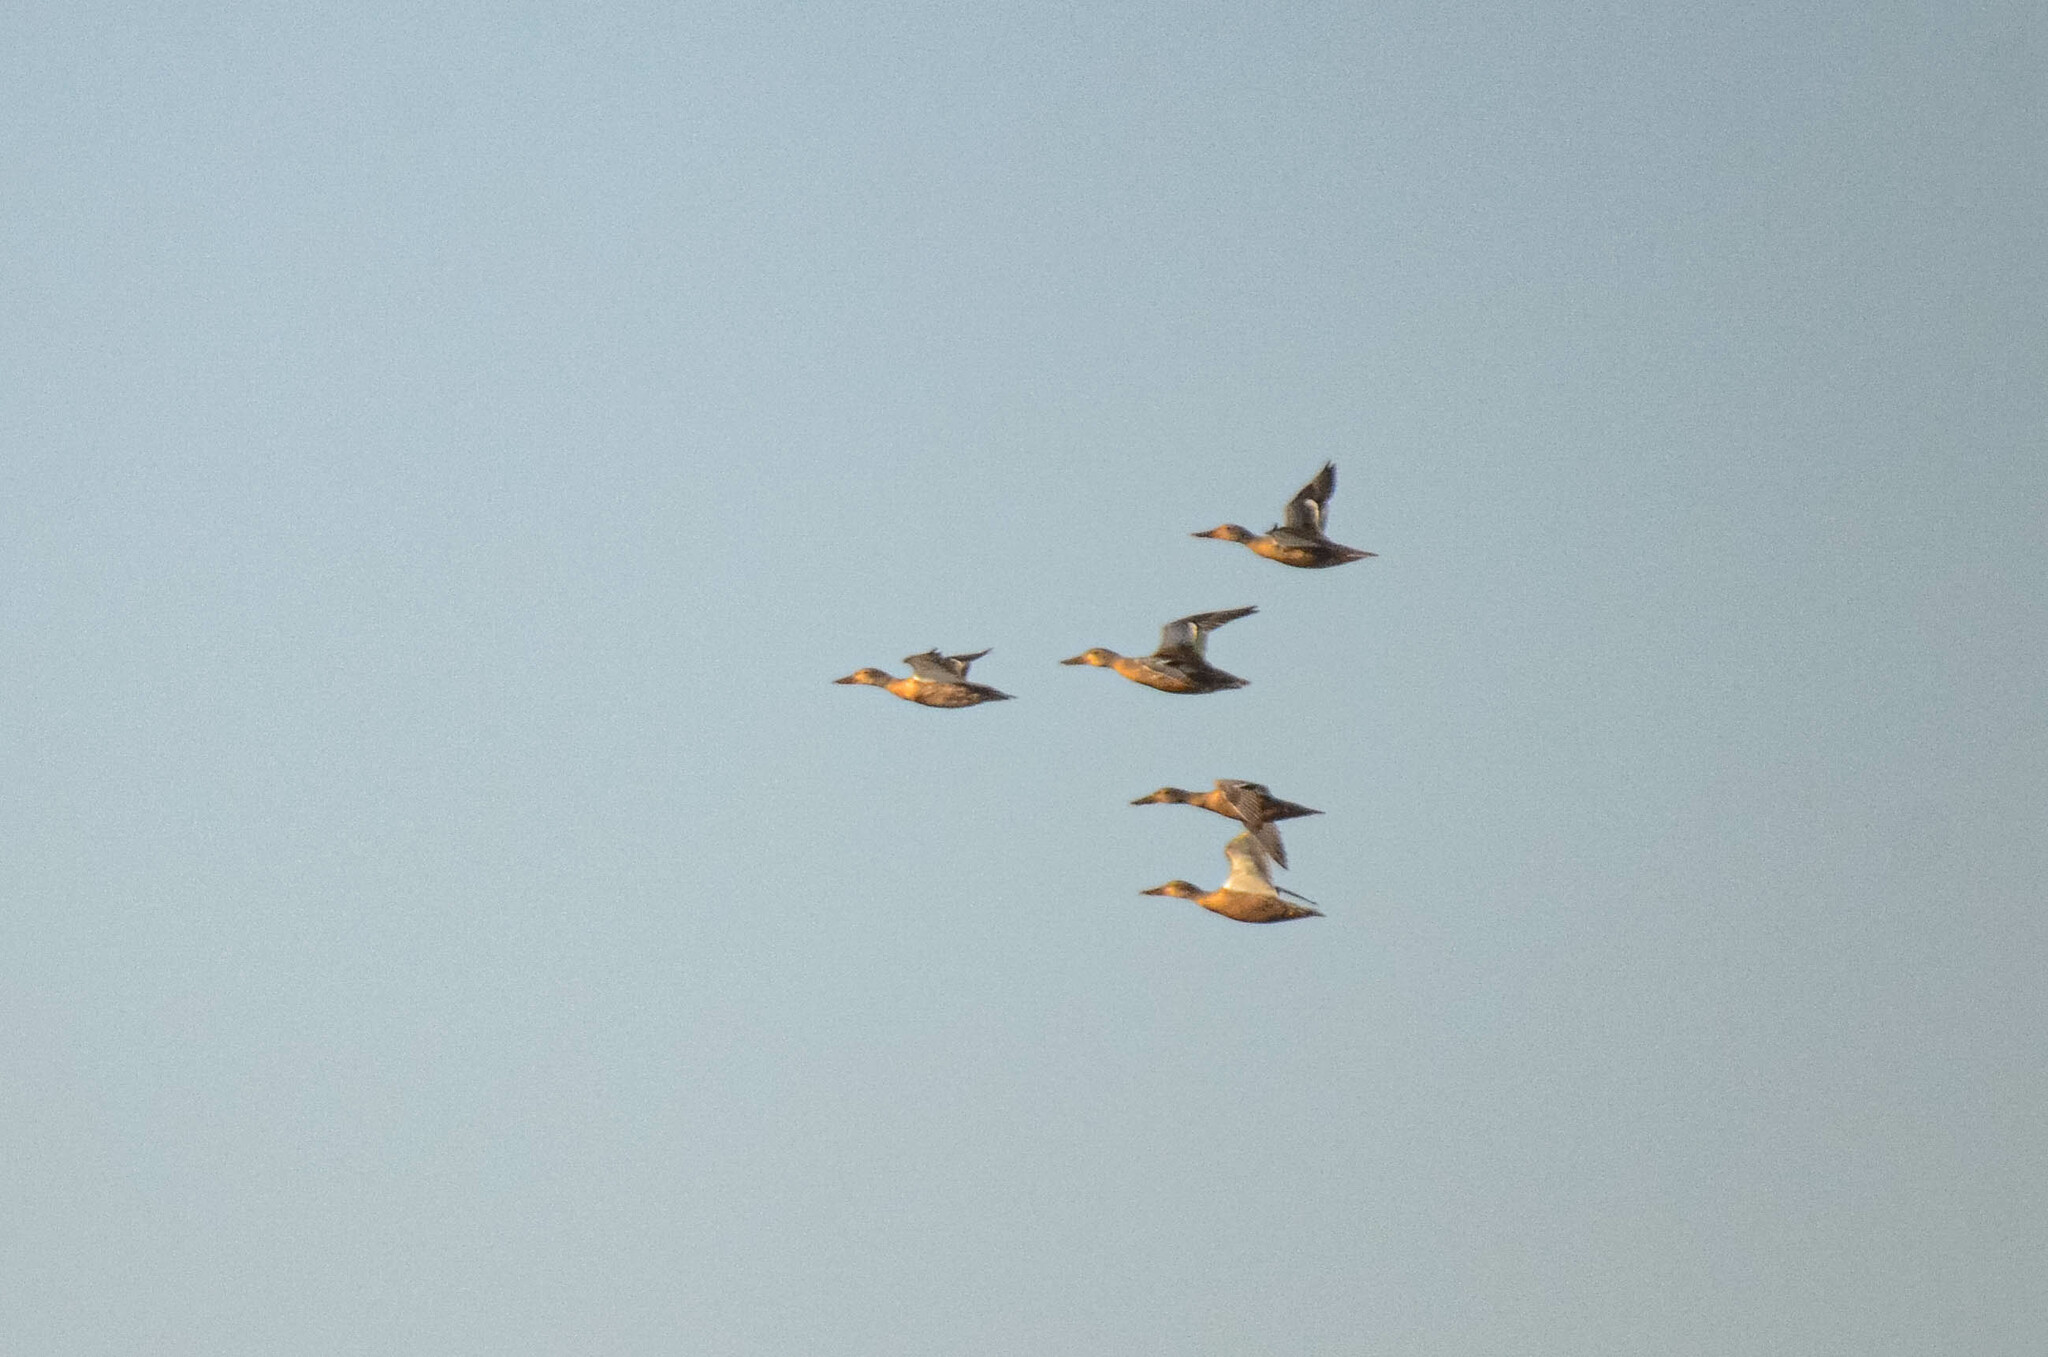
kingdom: Animalia
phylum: Chordata
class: Aves
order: Anseriformes
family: Anatidae
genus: Spatula
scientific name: Spatula clypeata
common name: Northern shoveler
